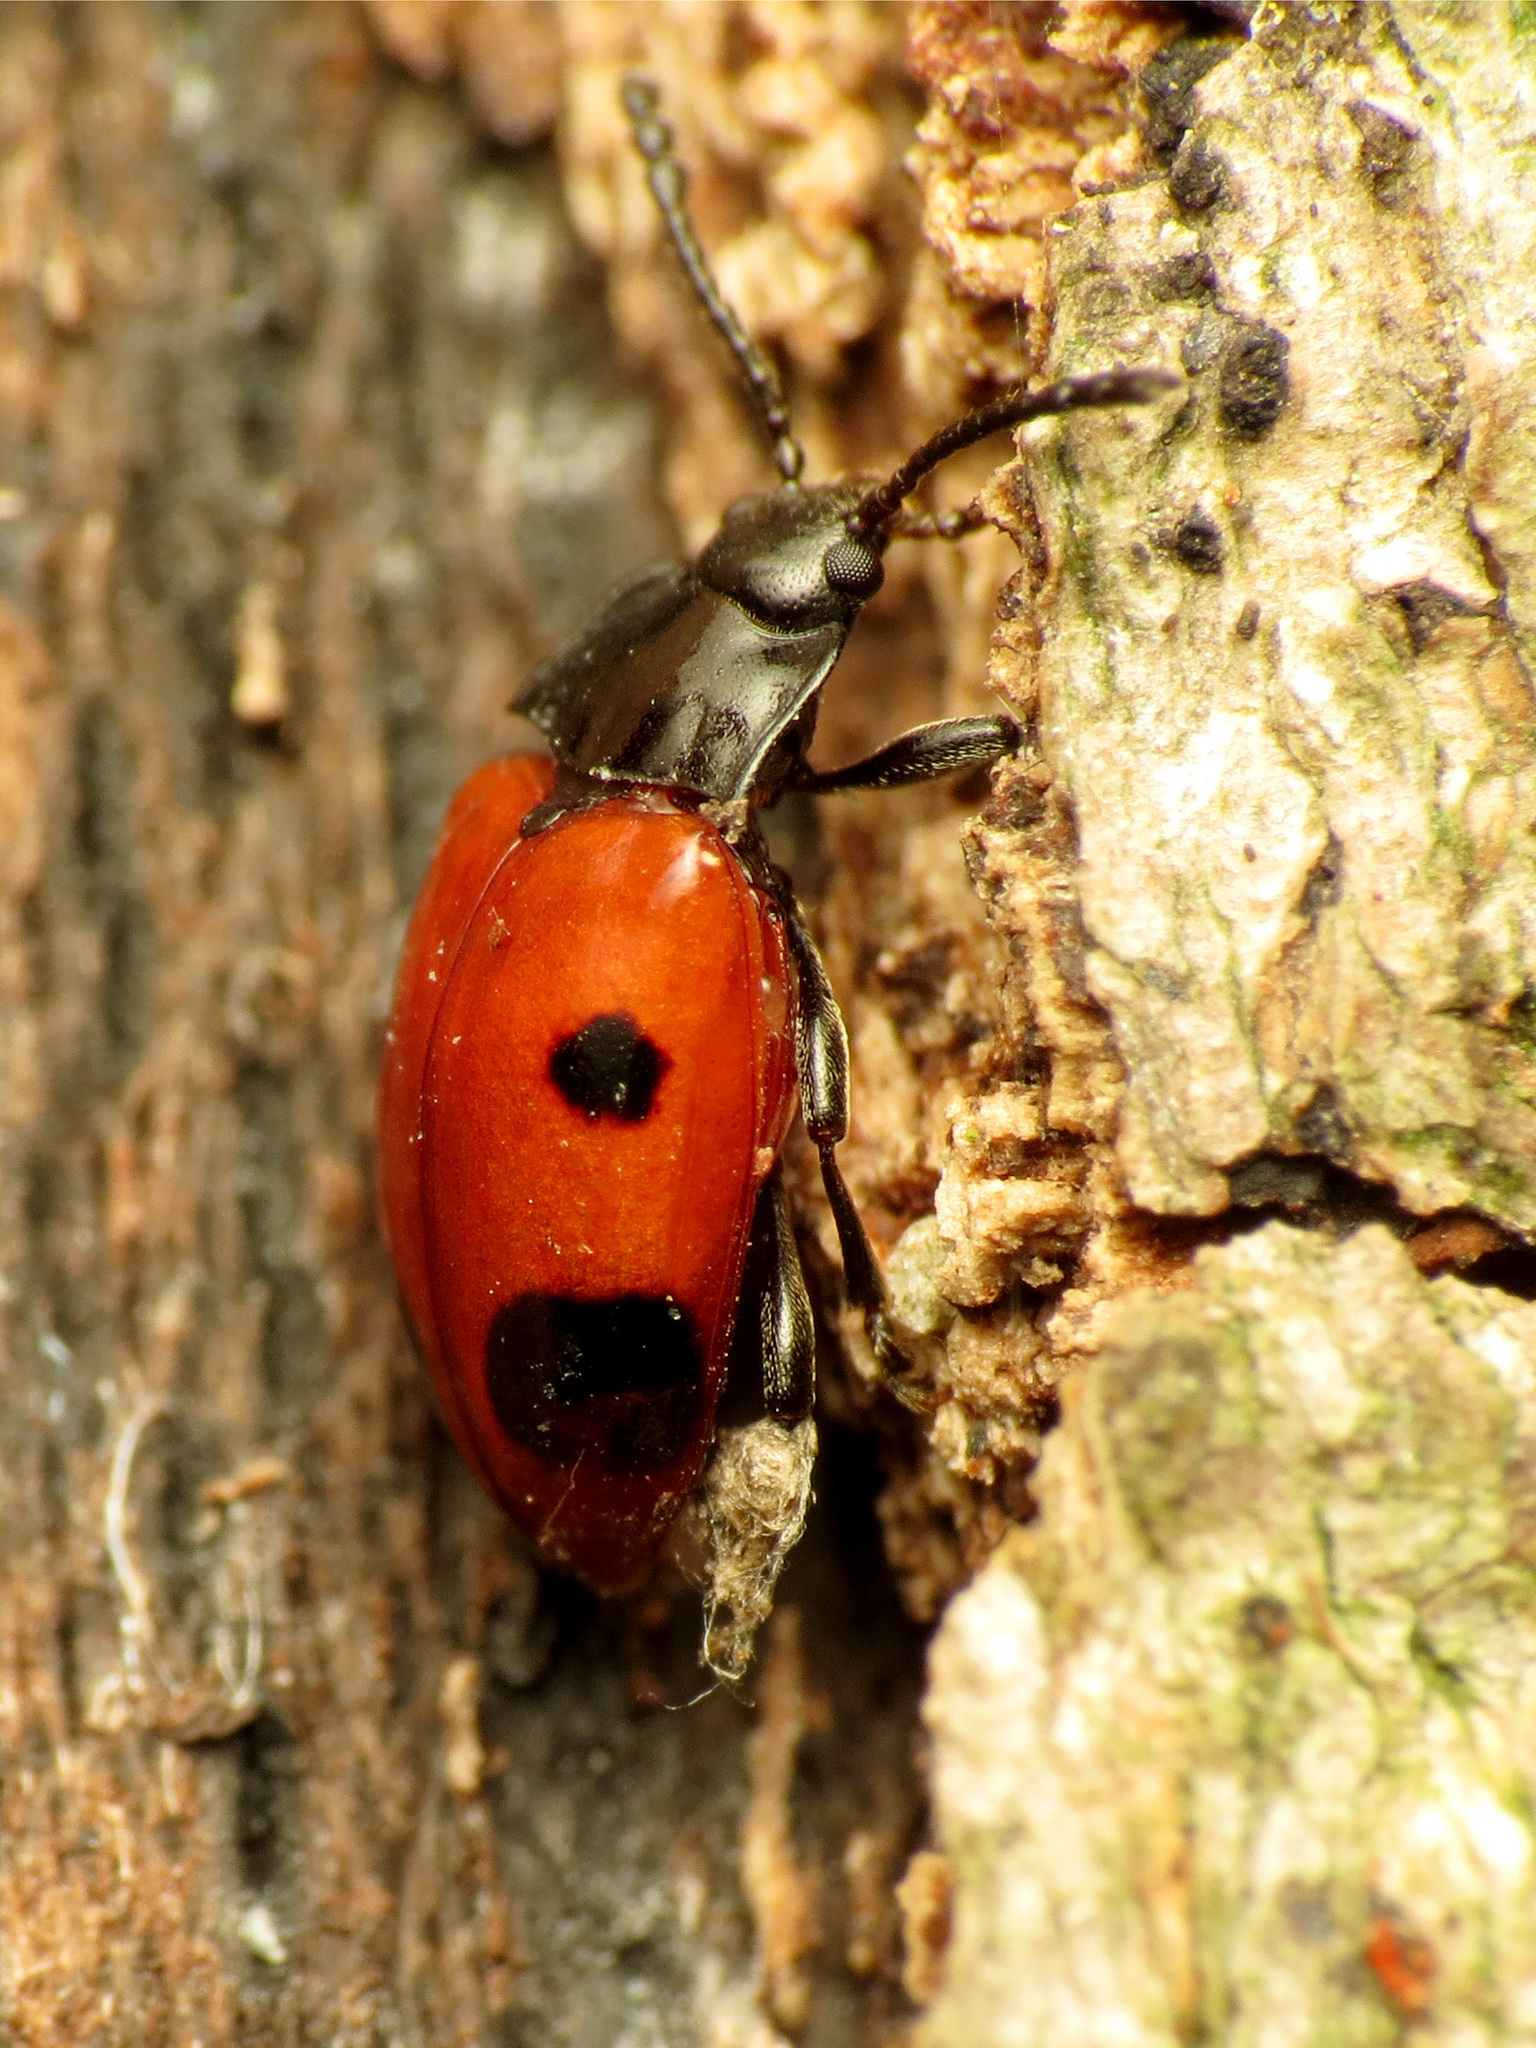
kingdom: Animalia
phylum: Arthropoda
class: Insecta
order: Coleoptera
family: Endomychidae
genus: Endomychus
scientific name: Endomychus biguttatus
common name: Handsome fungus beetle
